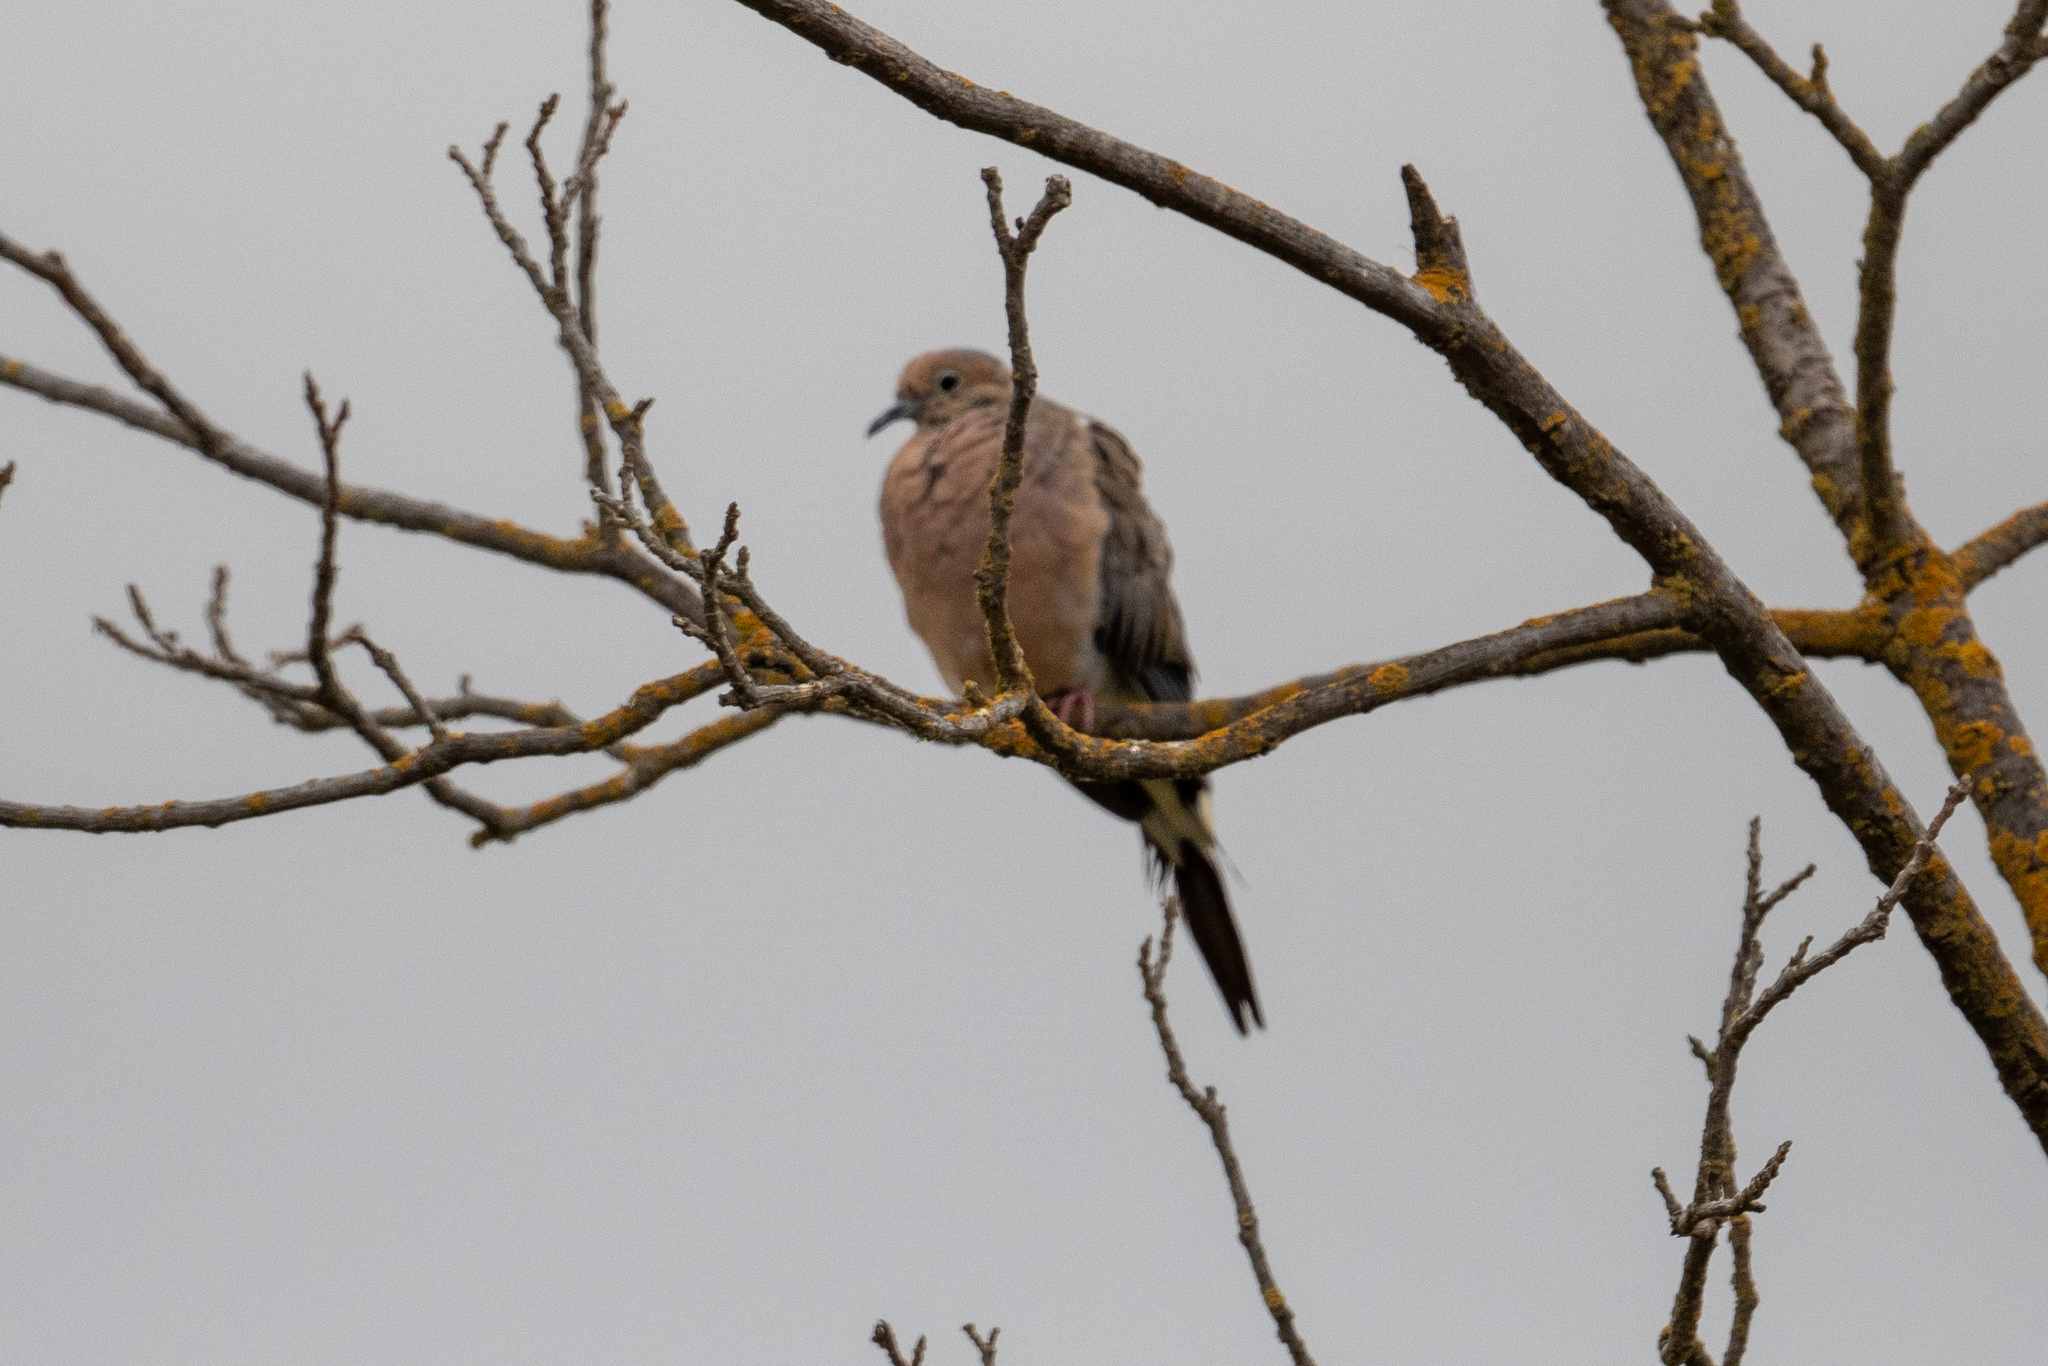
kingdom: Animalia
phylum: Chordata
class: Aves
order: Columbiformes
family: Columbidae
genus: Zenaida
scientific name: Zenaida macroura
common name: Mourning dove
